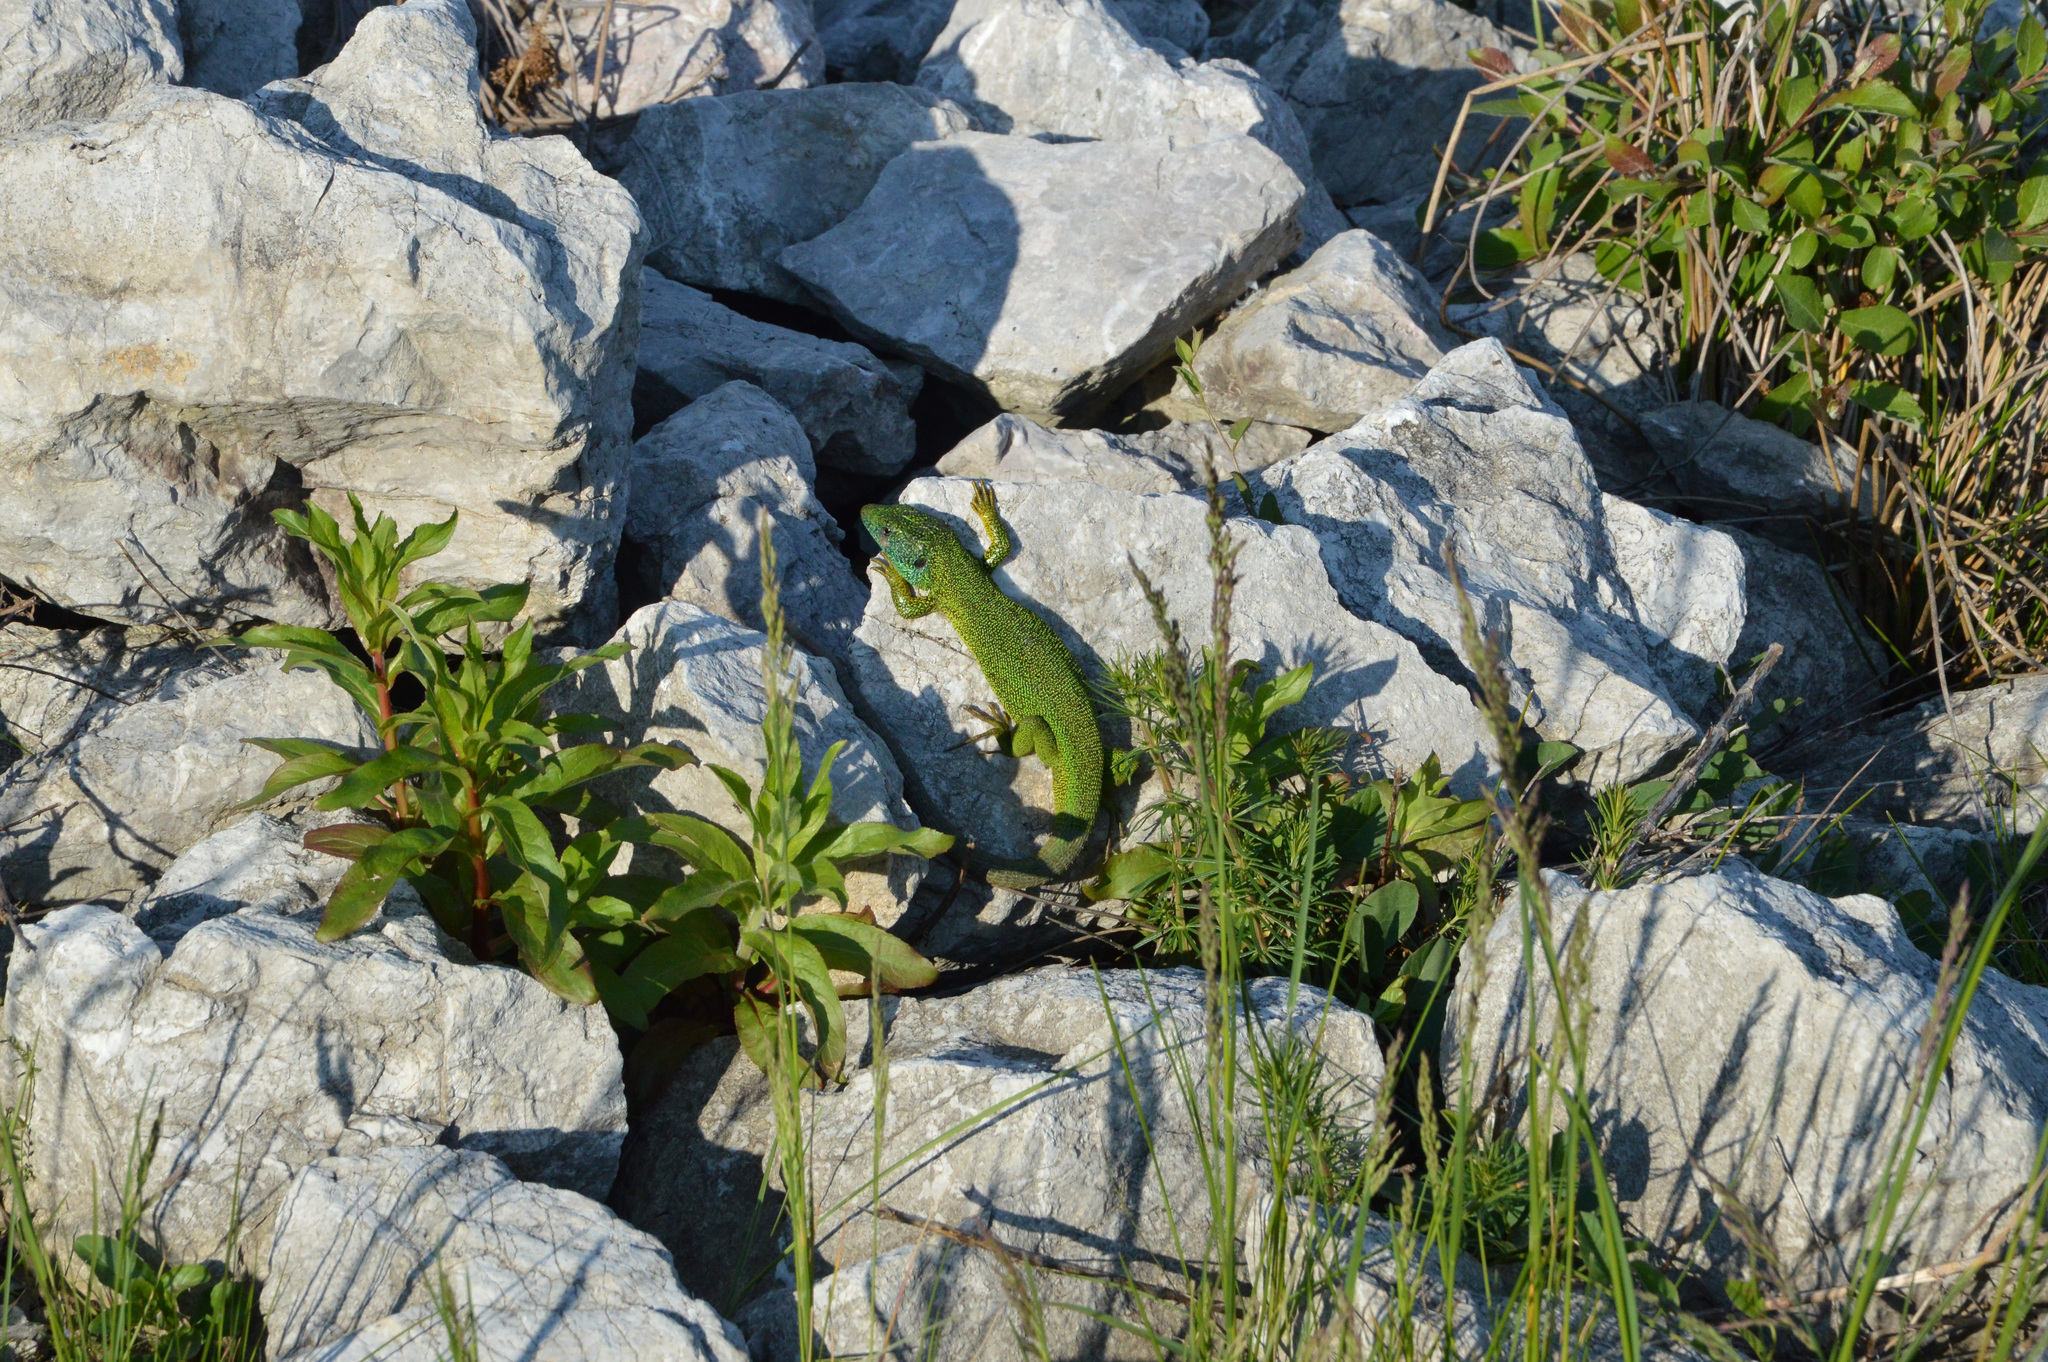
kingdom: Animalia
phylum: Chordata
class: Squamata
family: Lacertidae
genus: Lacerta
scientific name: Lacerta viridis
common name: European green lizard
